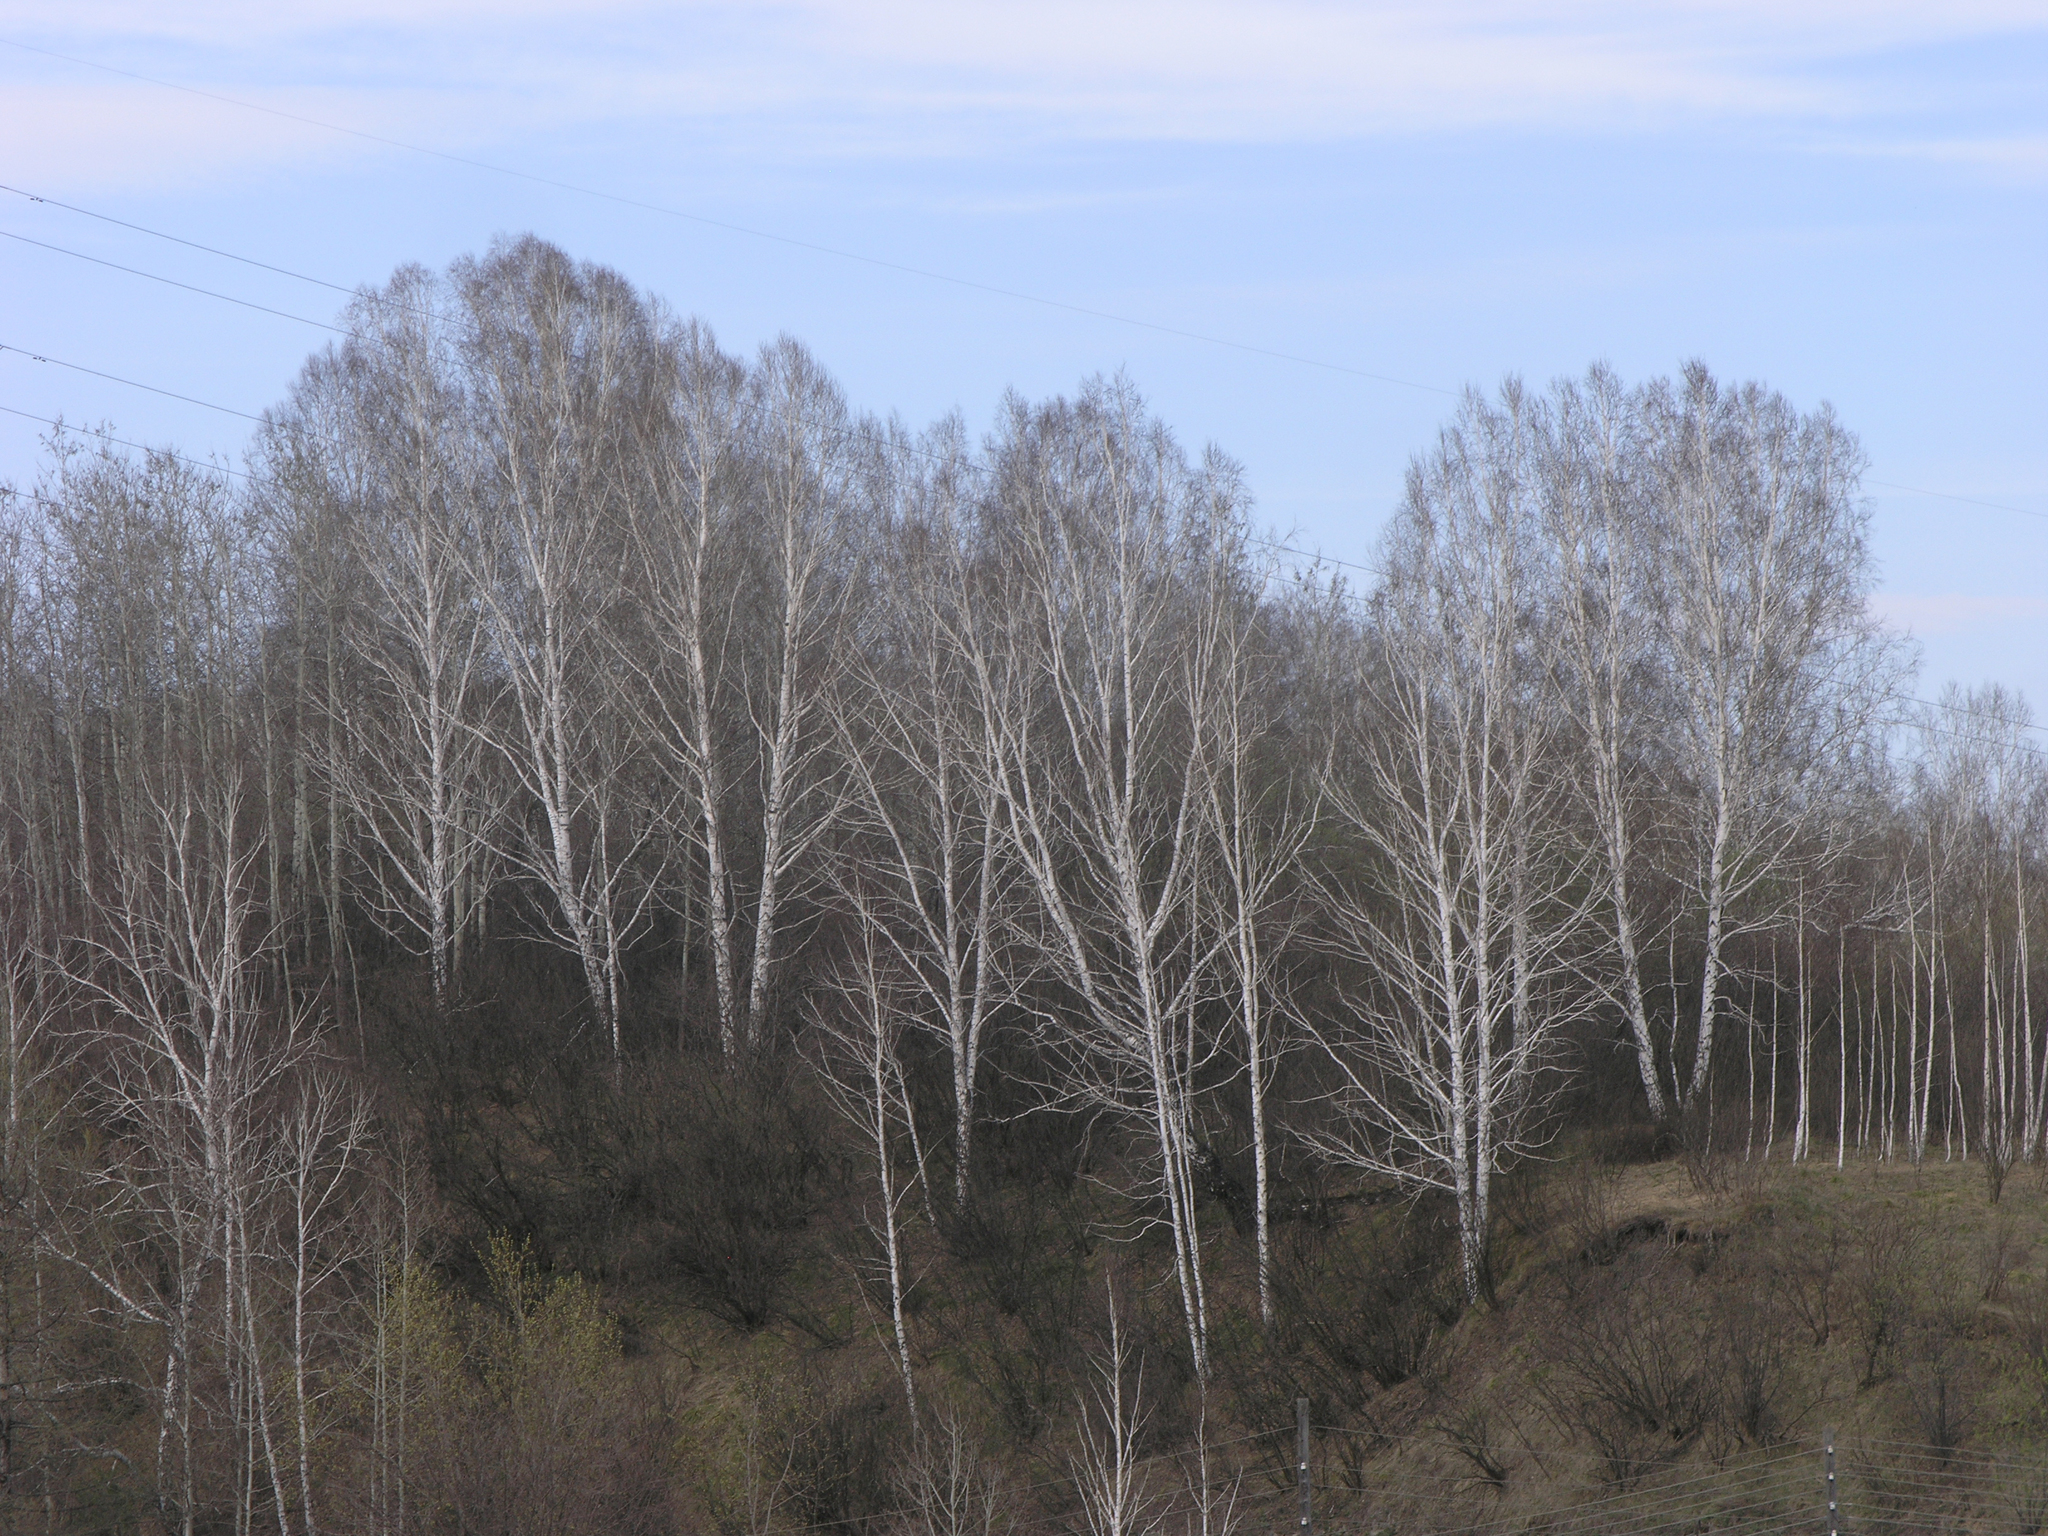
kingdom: Plantae
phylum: Tracheophyta
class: Magnoliopsida
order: Fagales
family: Betulaceae
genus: Betula
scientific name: Betula pendula
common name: Silver birch
